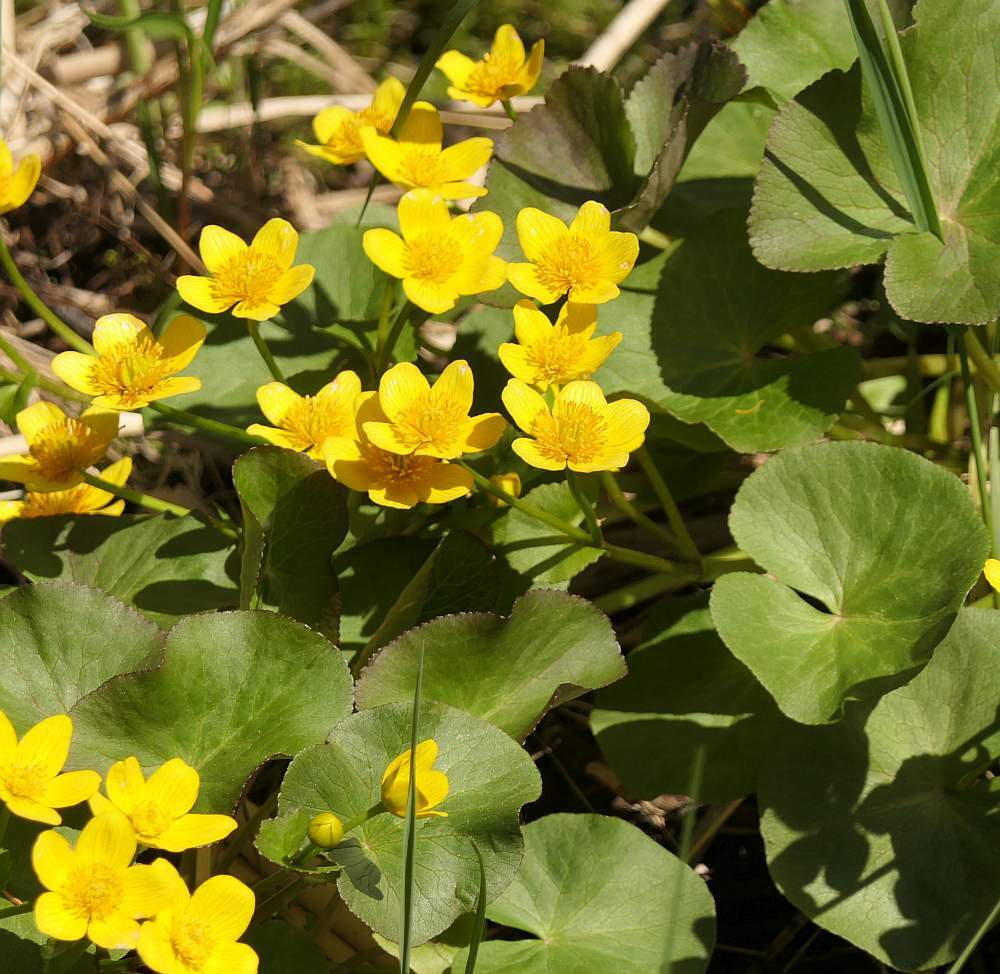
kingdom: Plantae
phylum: Tracheophyta
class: Magnoliopsida
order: Ranunculales
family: Ranunculaceae
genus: Caltha
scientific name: Caltha palustris
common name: Marsh marigold
